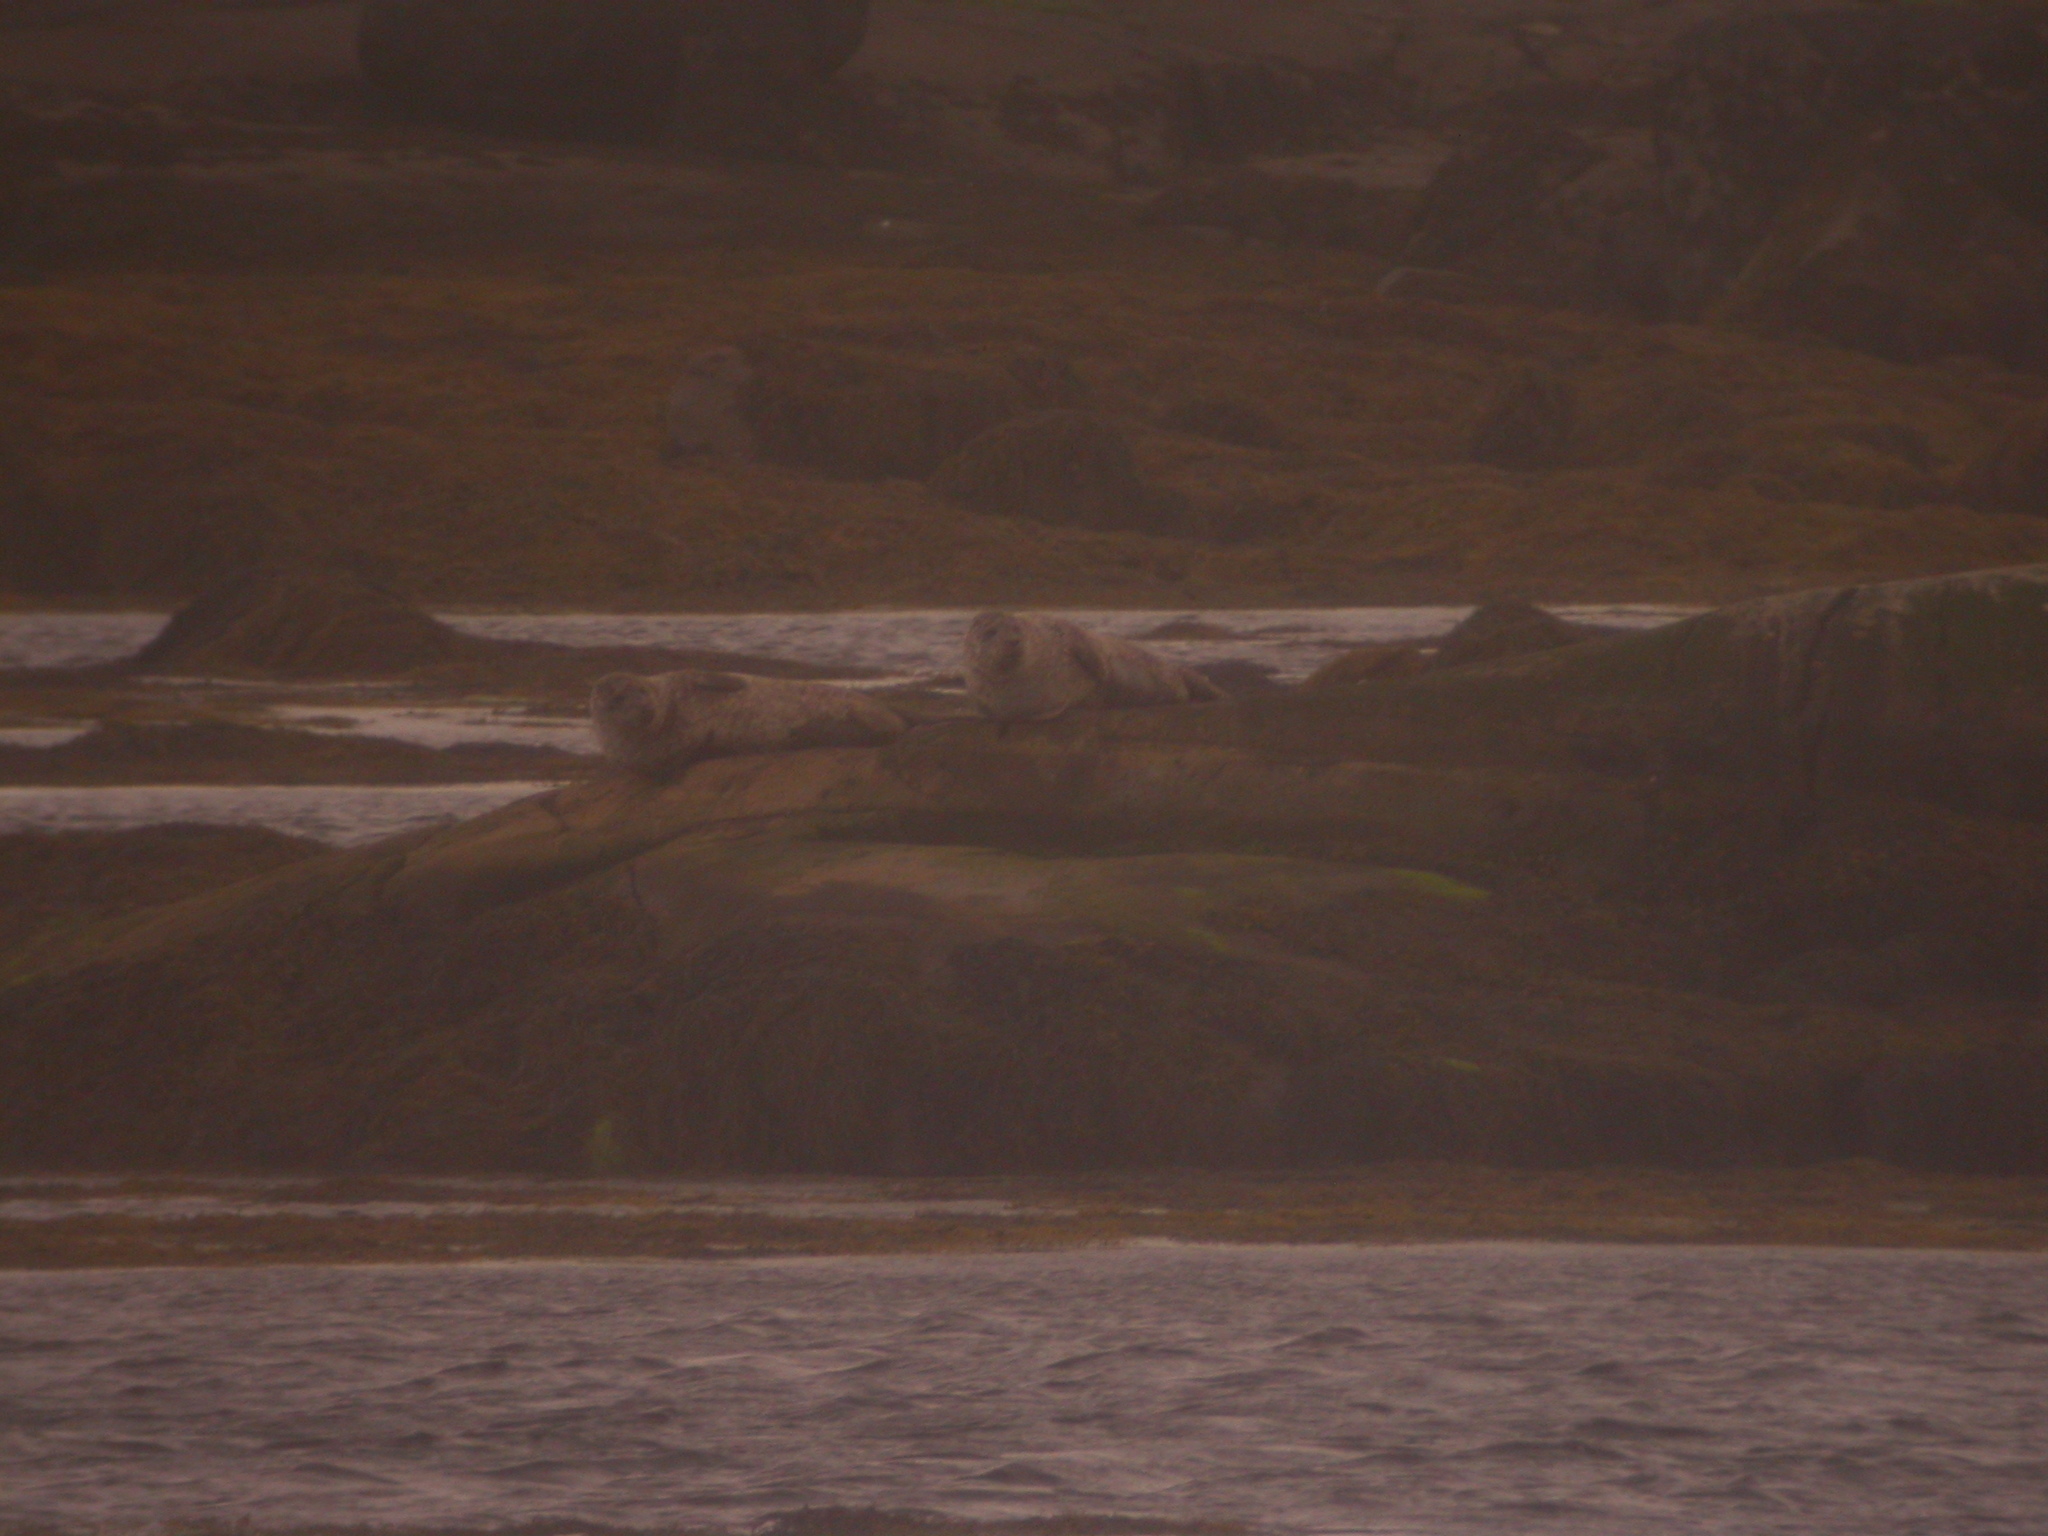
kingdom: Animalia
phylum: Chordata
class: Mammalia
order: Carnivora
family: Phocidae
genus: Phoca
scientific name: Phoca vitulina
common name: Harbor seal
